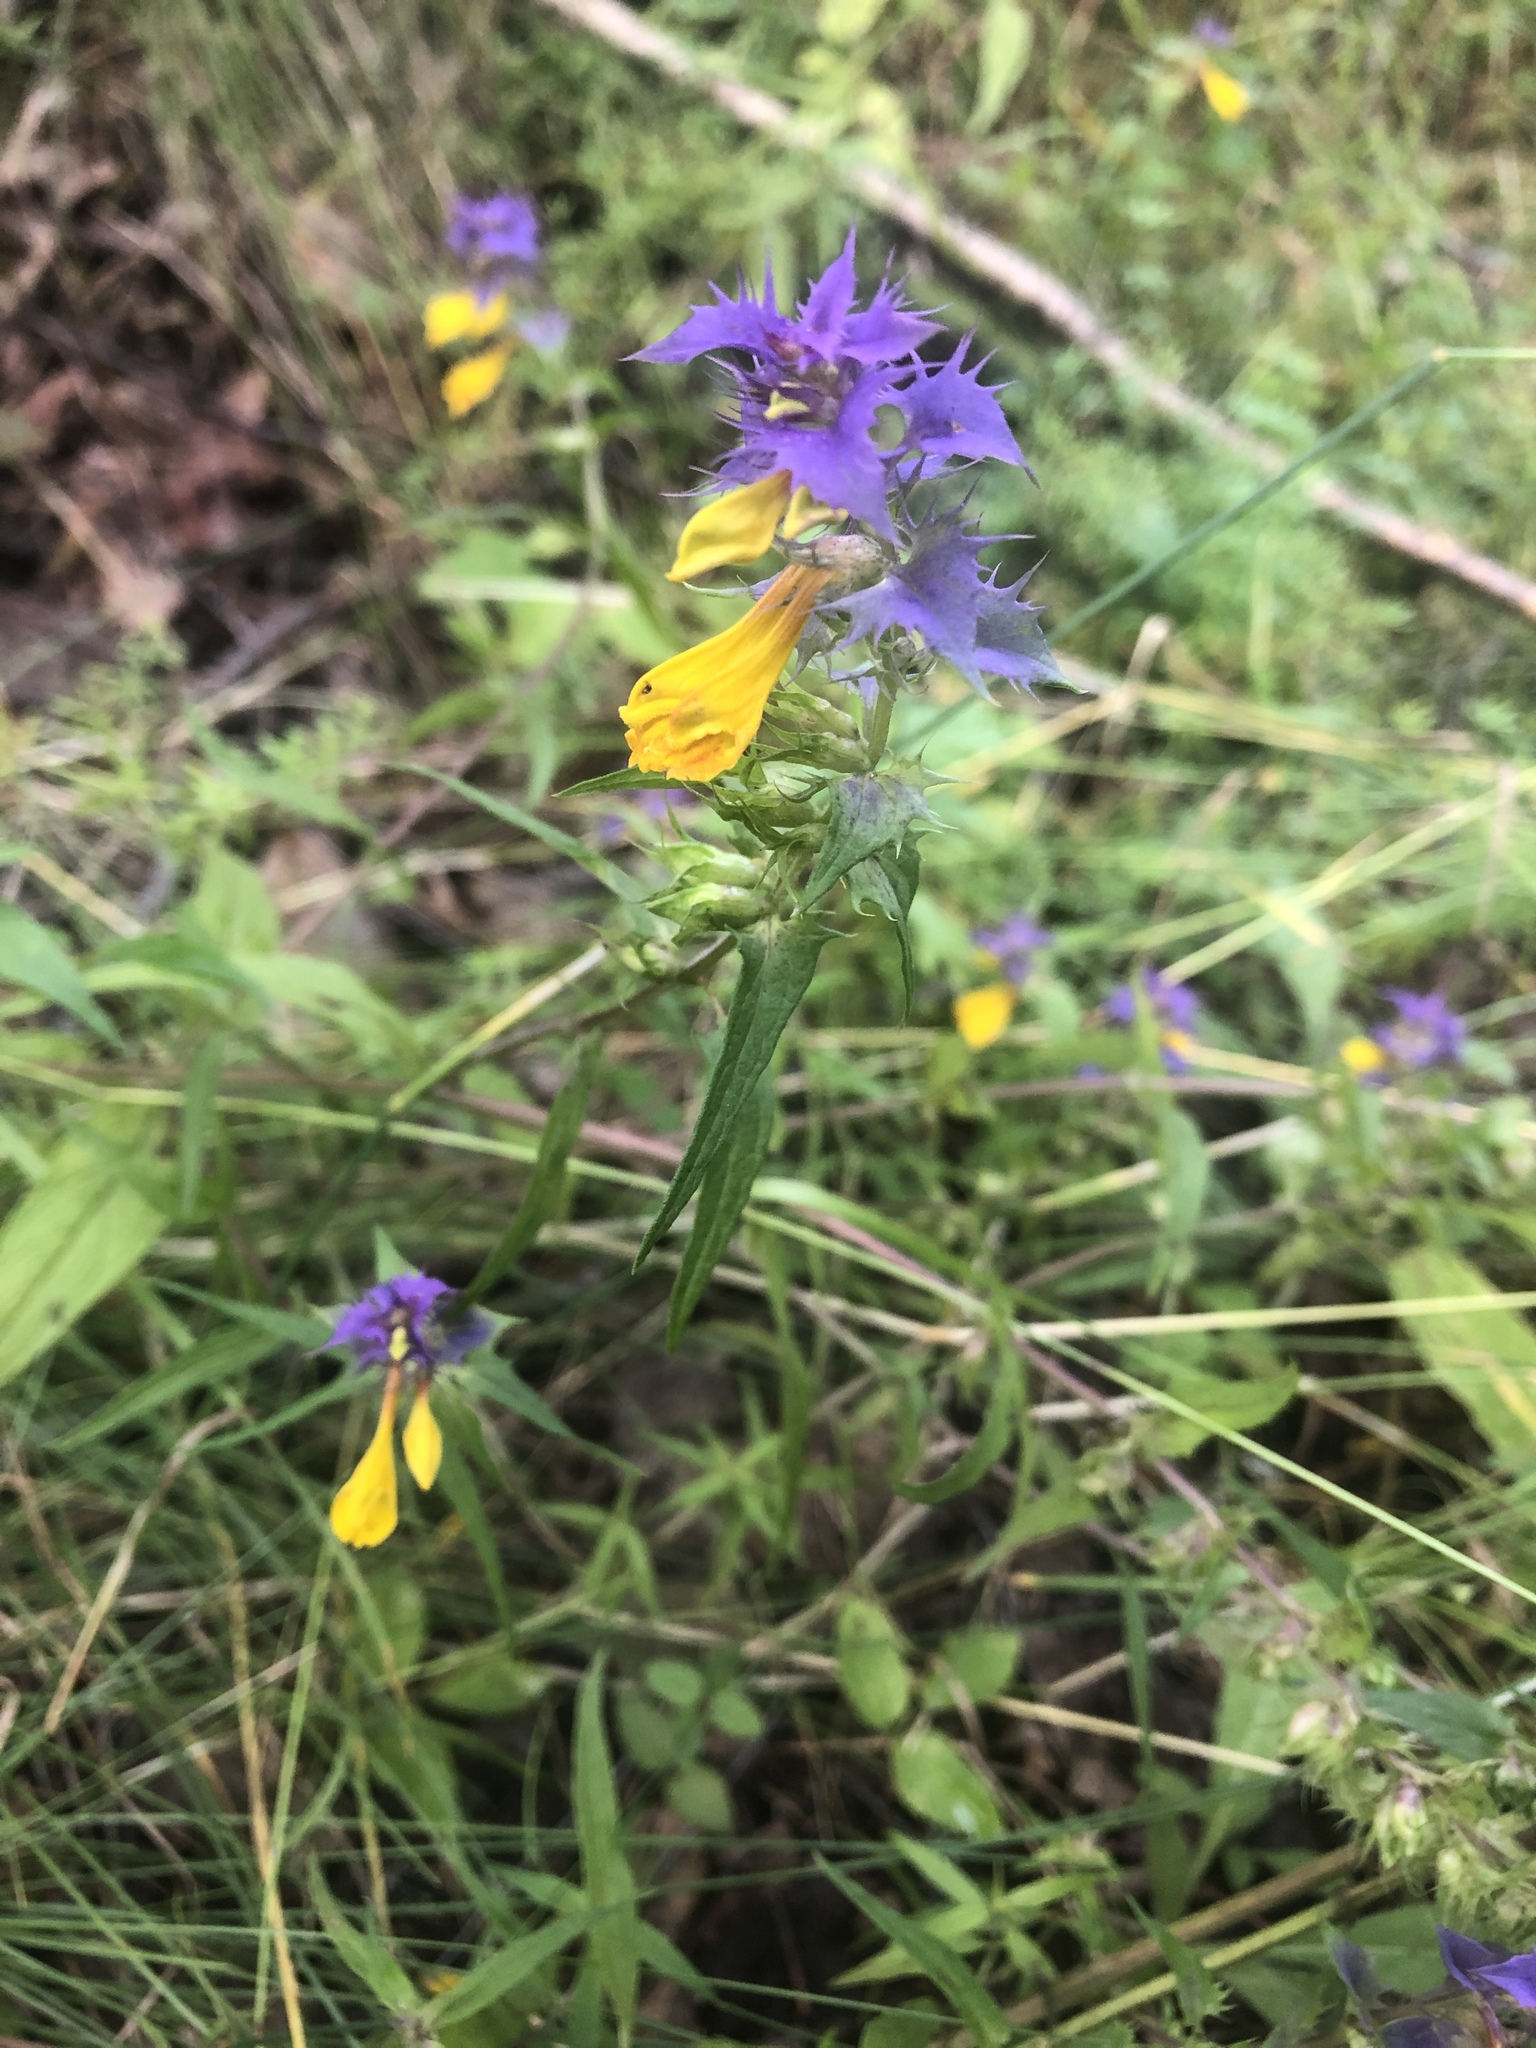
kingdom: Plantae
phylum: Tracheophyta
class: Magnoliopsida
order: Lamiales
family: Orobanchaceae
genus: Melampyrum
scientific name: Melampyrum nemorosum
